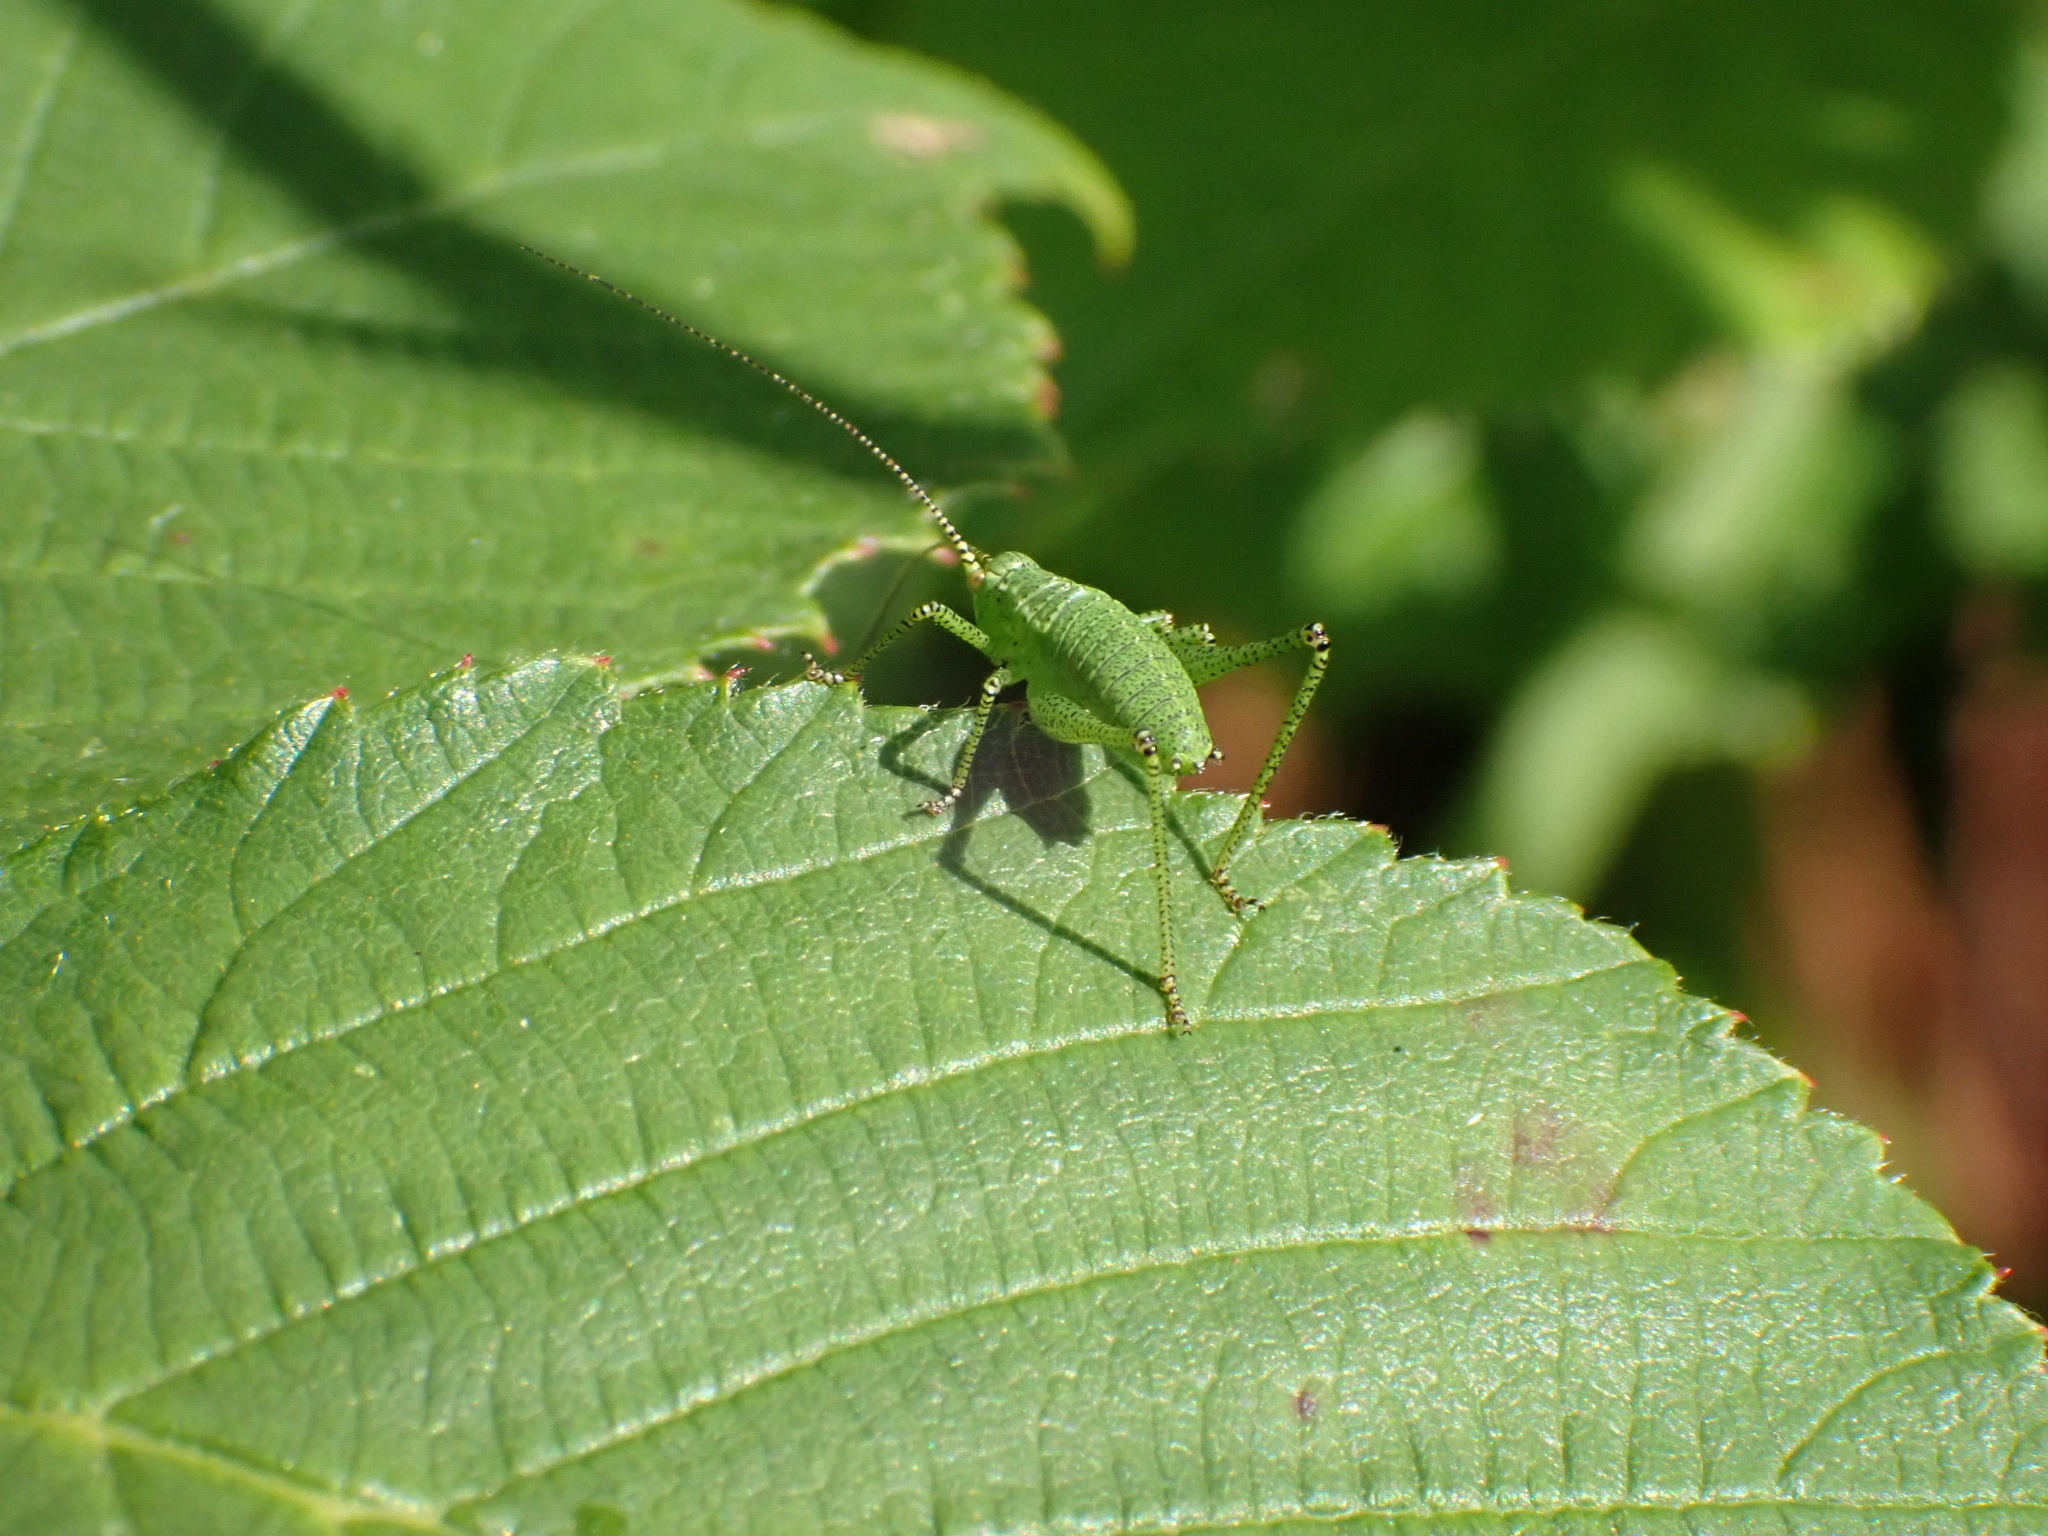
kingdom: Animalia
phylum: Arthropoda
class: Insecta
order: Orthoptera
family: Tettigoniidae
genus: Leptophyes
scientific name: Leptophyes punctatissima
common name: Speckled bush-cricket
